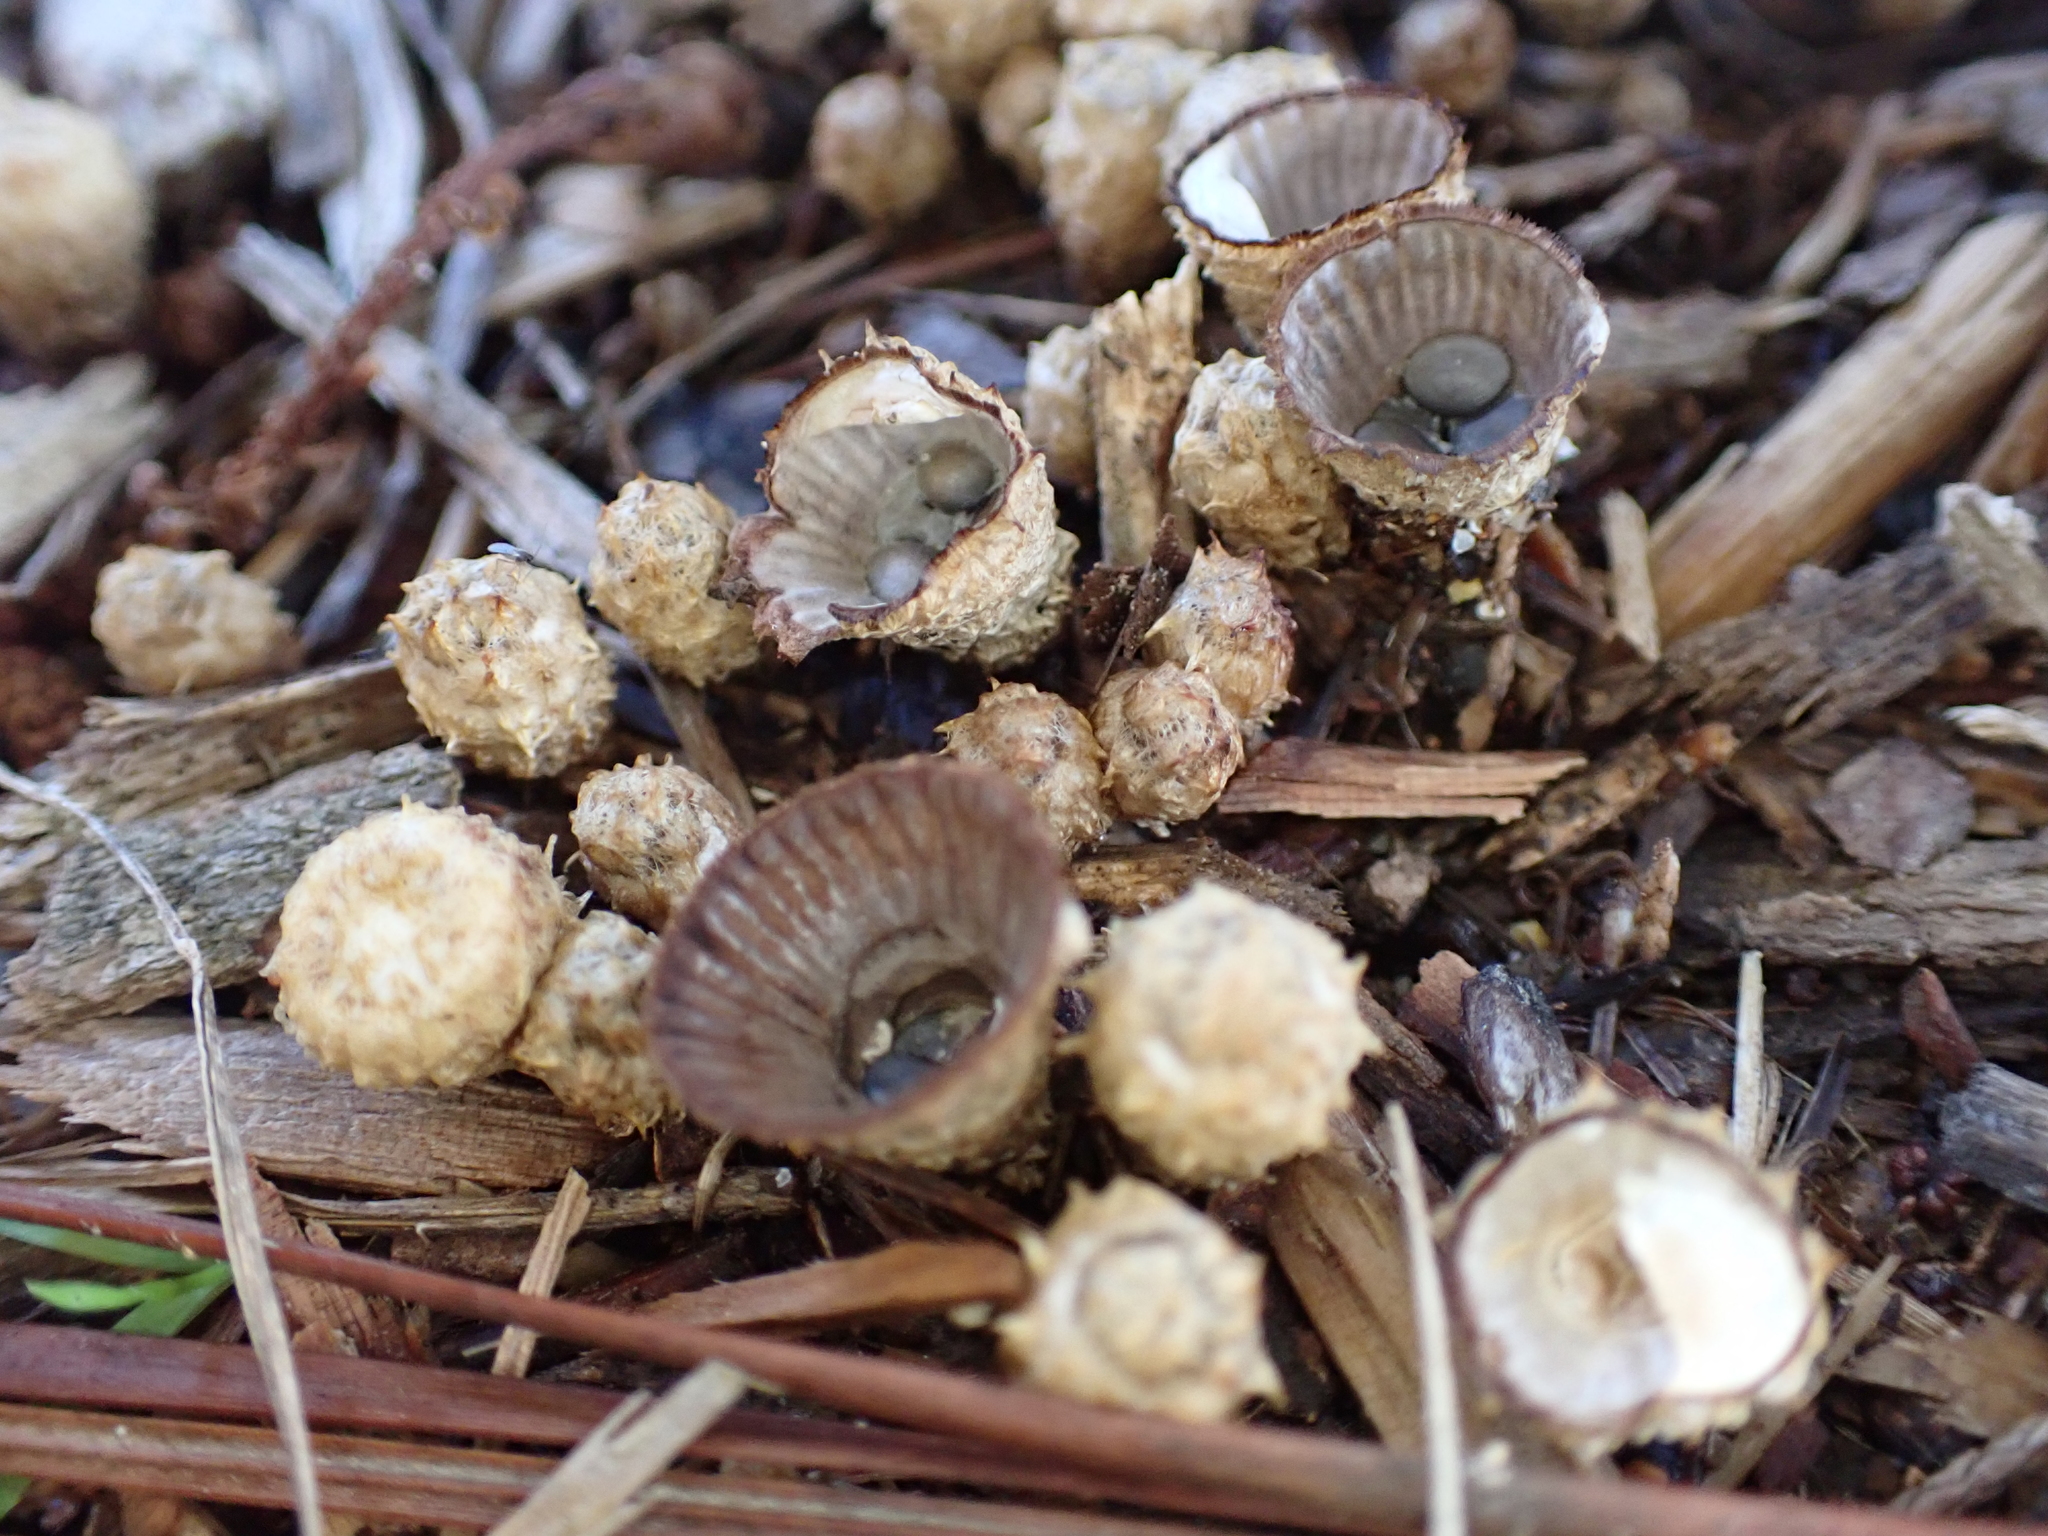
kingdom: Fungi
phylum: Basidiomycota
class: Agaricomycetes
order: Agaricales
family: Agaricaceae
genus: Cyathus
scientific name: Cyathus striatus
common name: Fluted bird's nest
